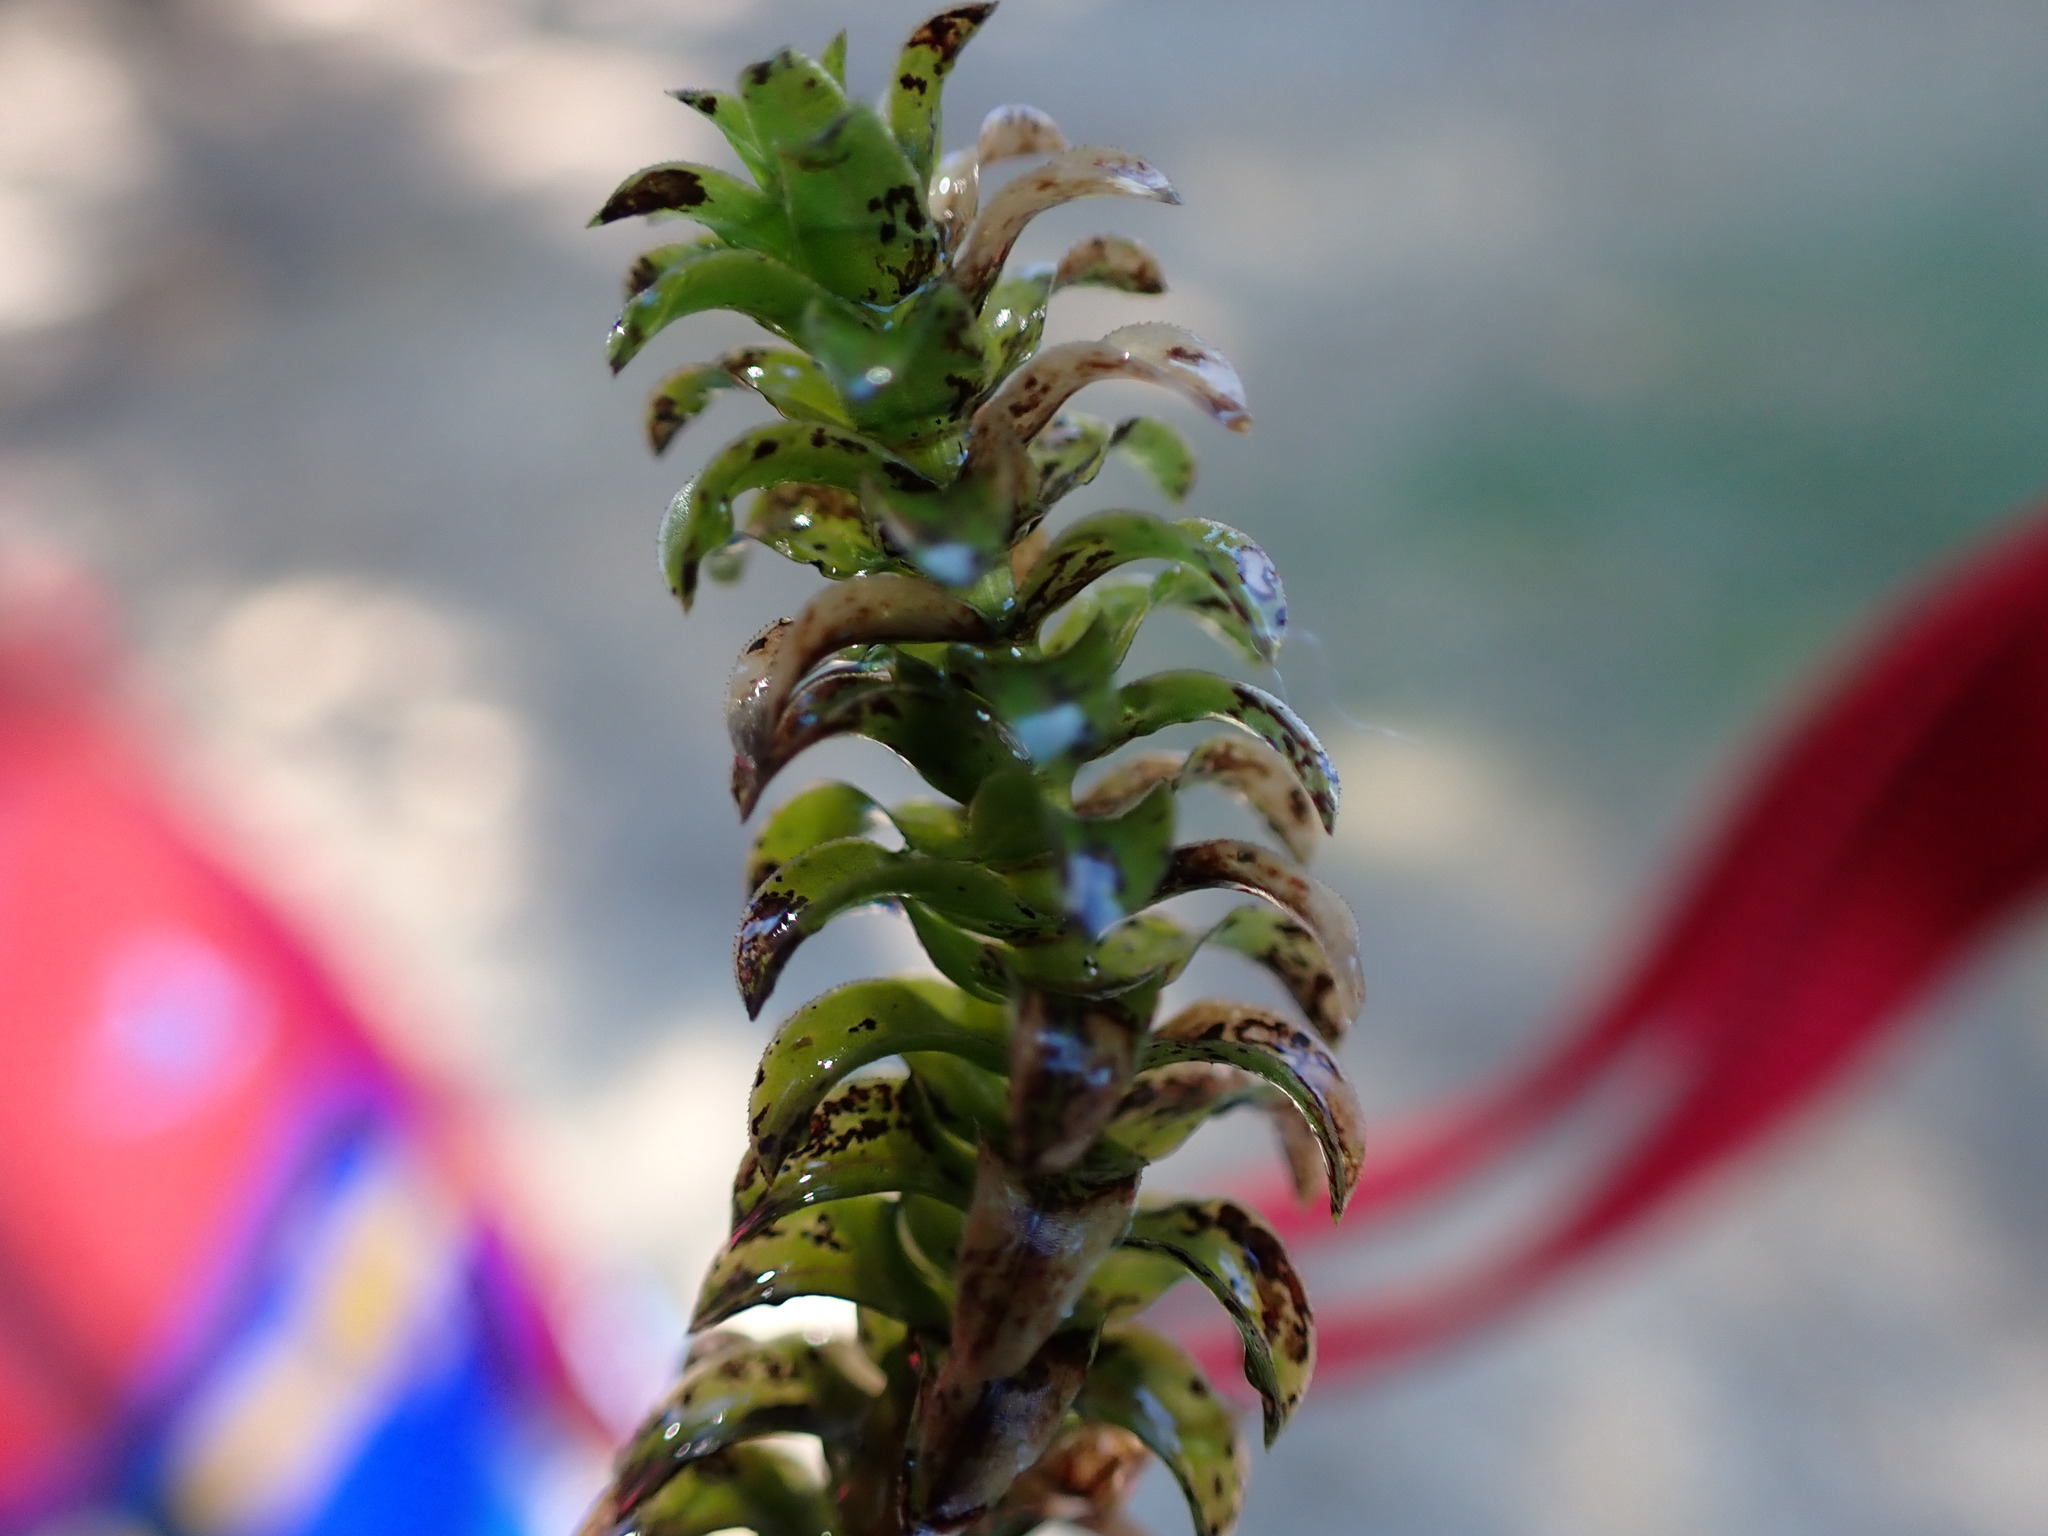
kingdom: Plantae
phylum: Tracheophyta
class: Liliopsida
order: Alismatales
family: Hydrocharitaceae
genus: Elodea
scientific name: Elodea canadensis
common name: Canadian waterweed
